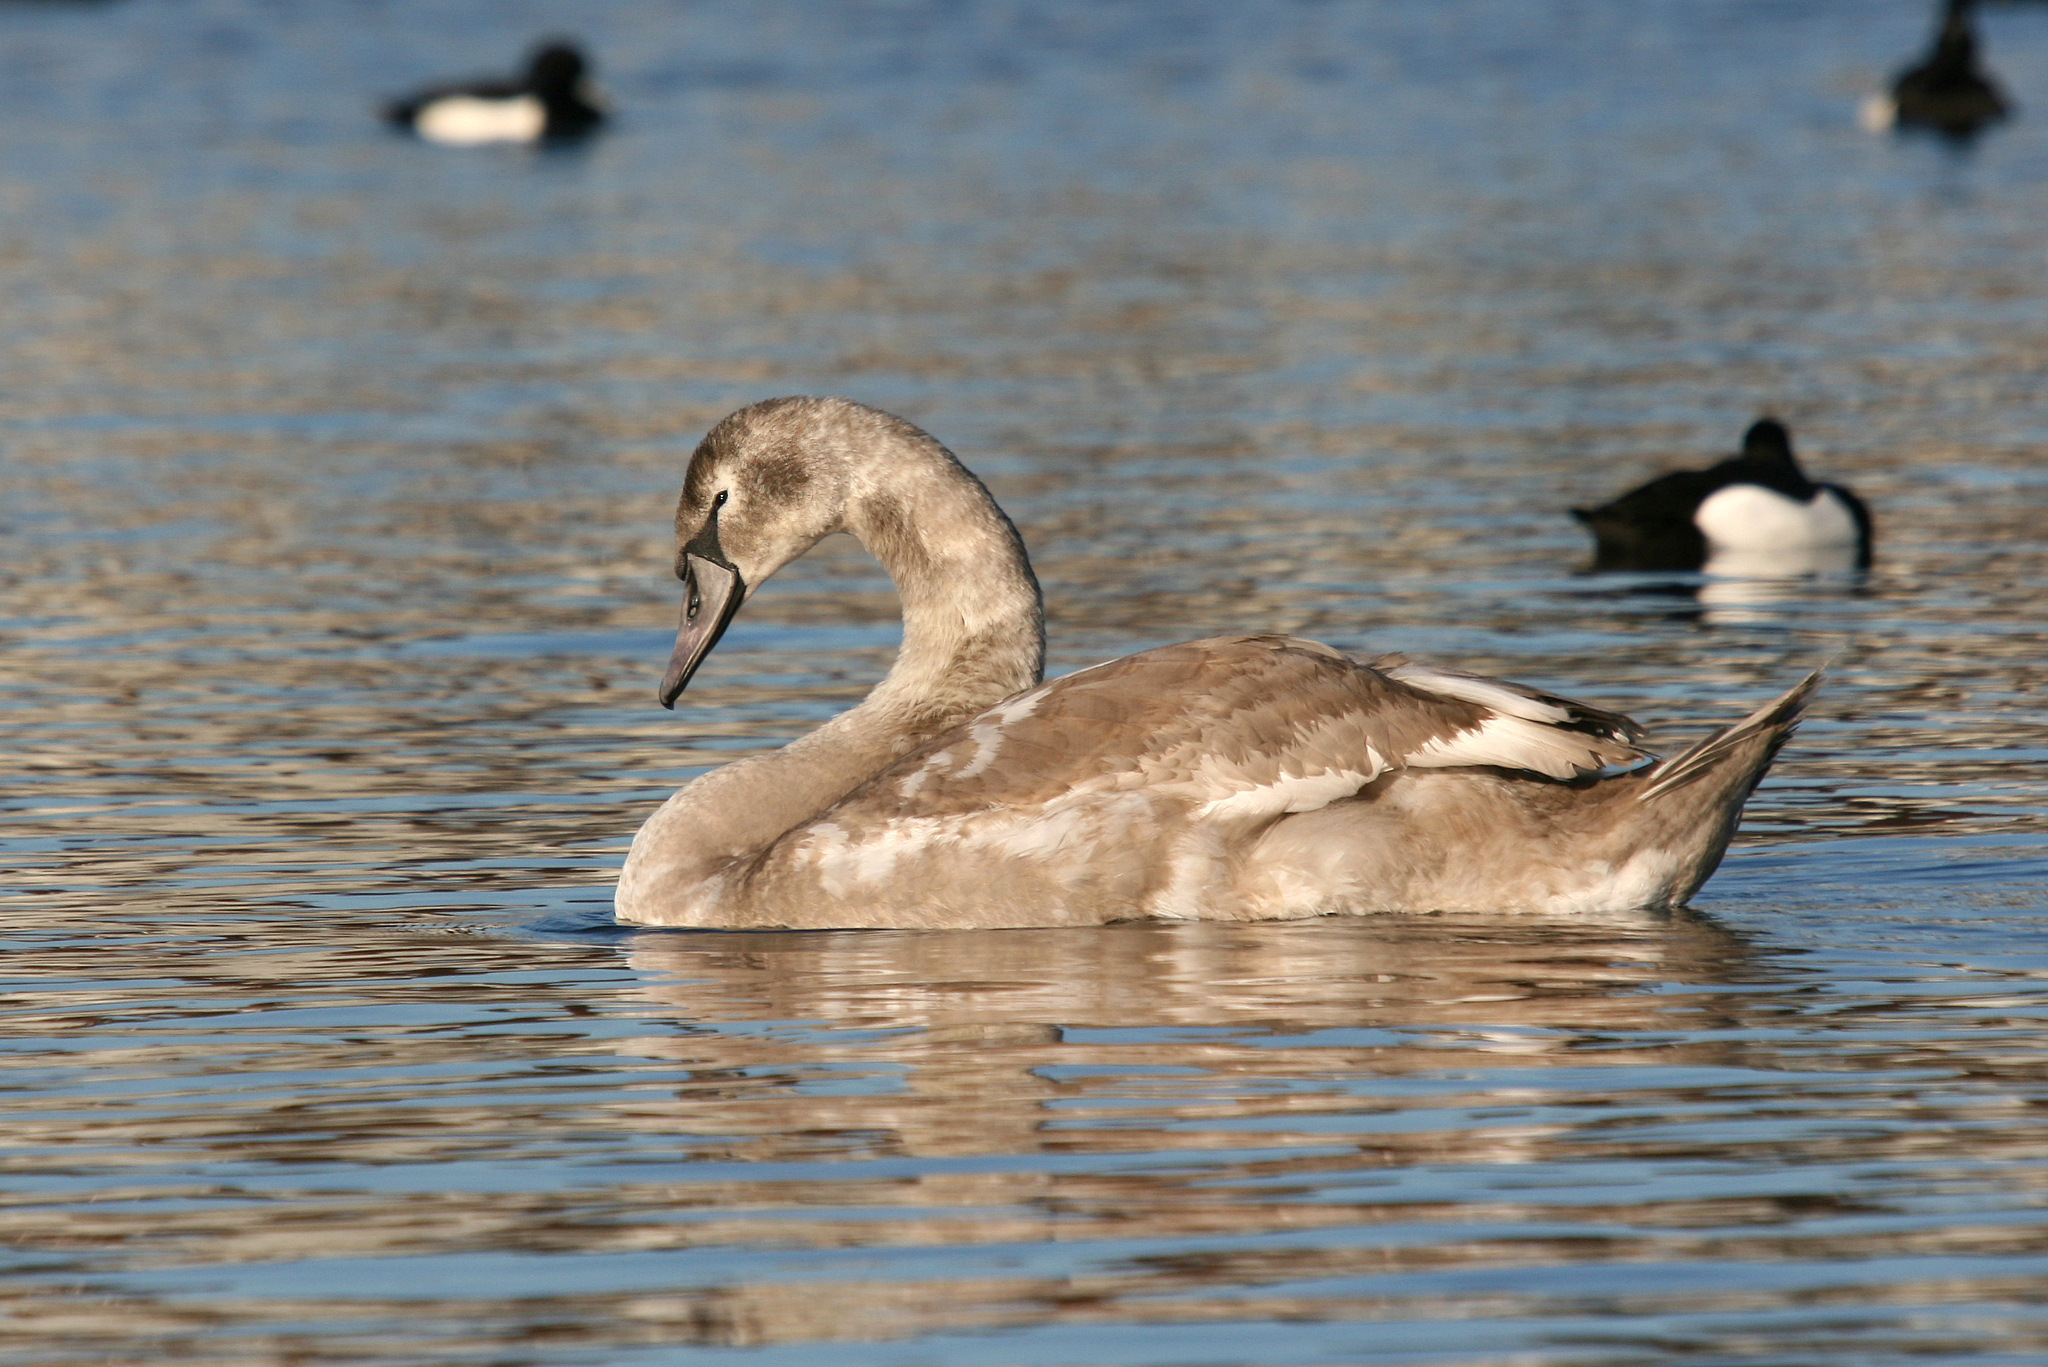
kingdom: Animalia
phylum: Chordata
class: Aves
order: Anseriformes
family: Anatidae
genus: Cygnus
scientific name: Cygnus olor
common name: Mute swan
